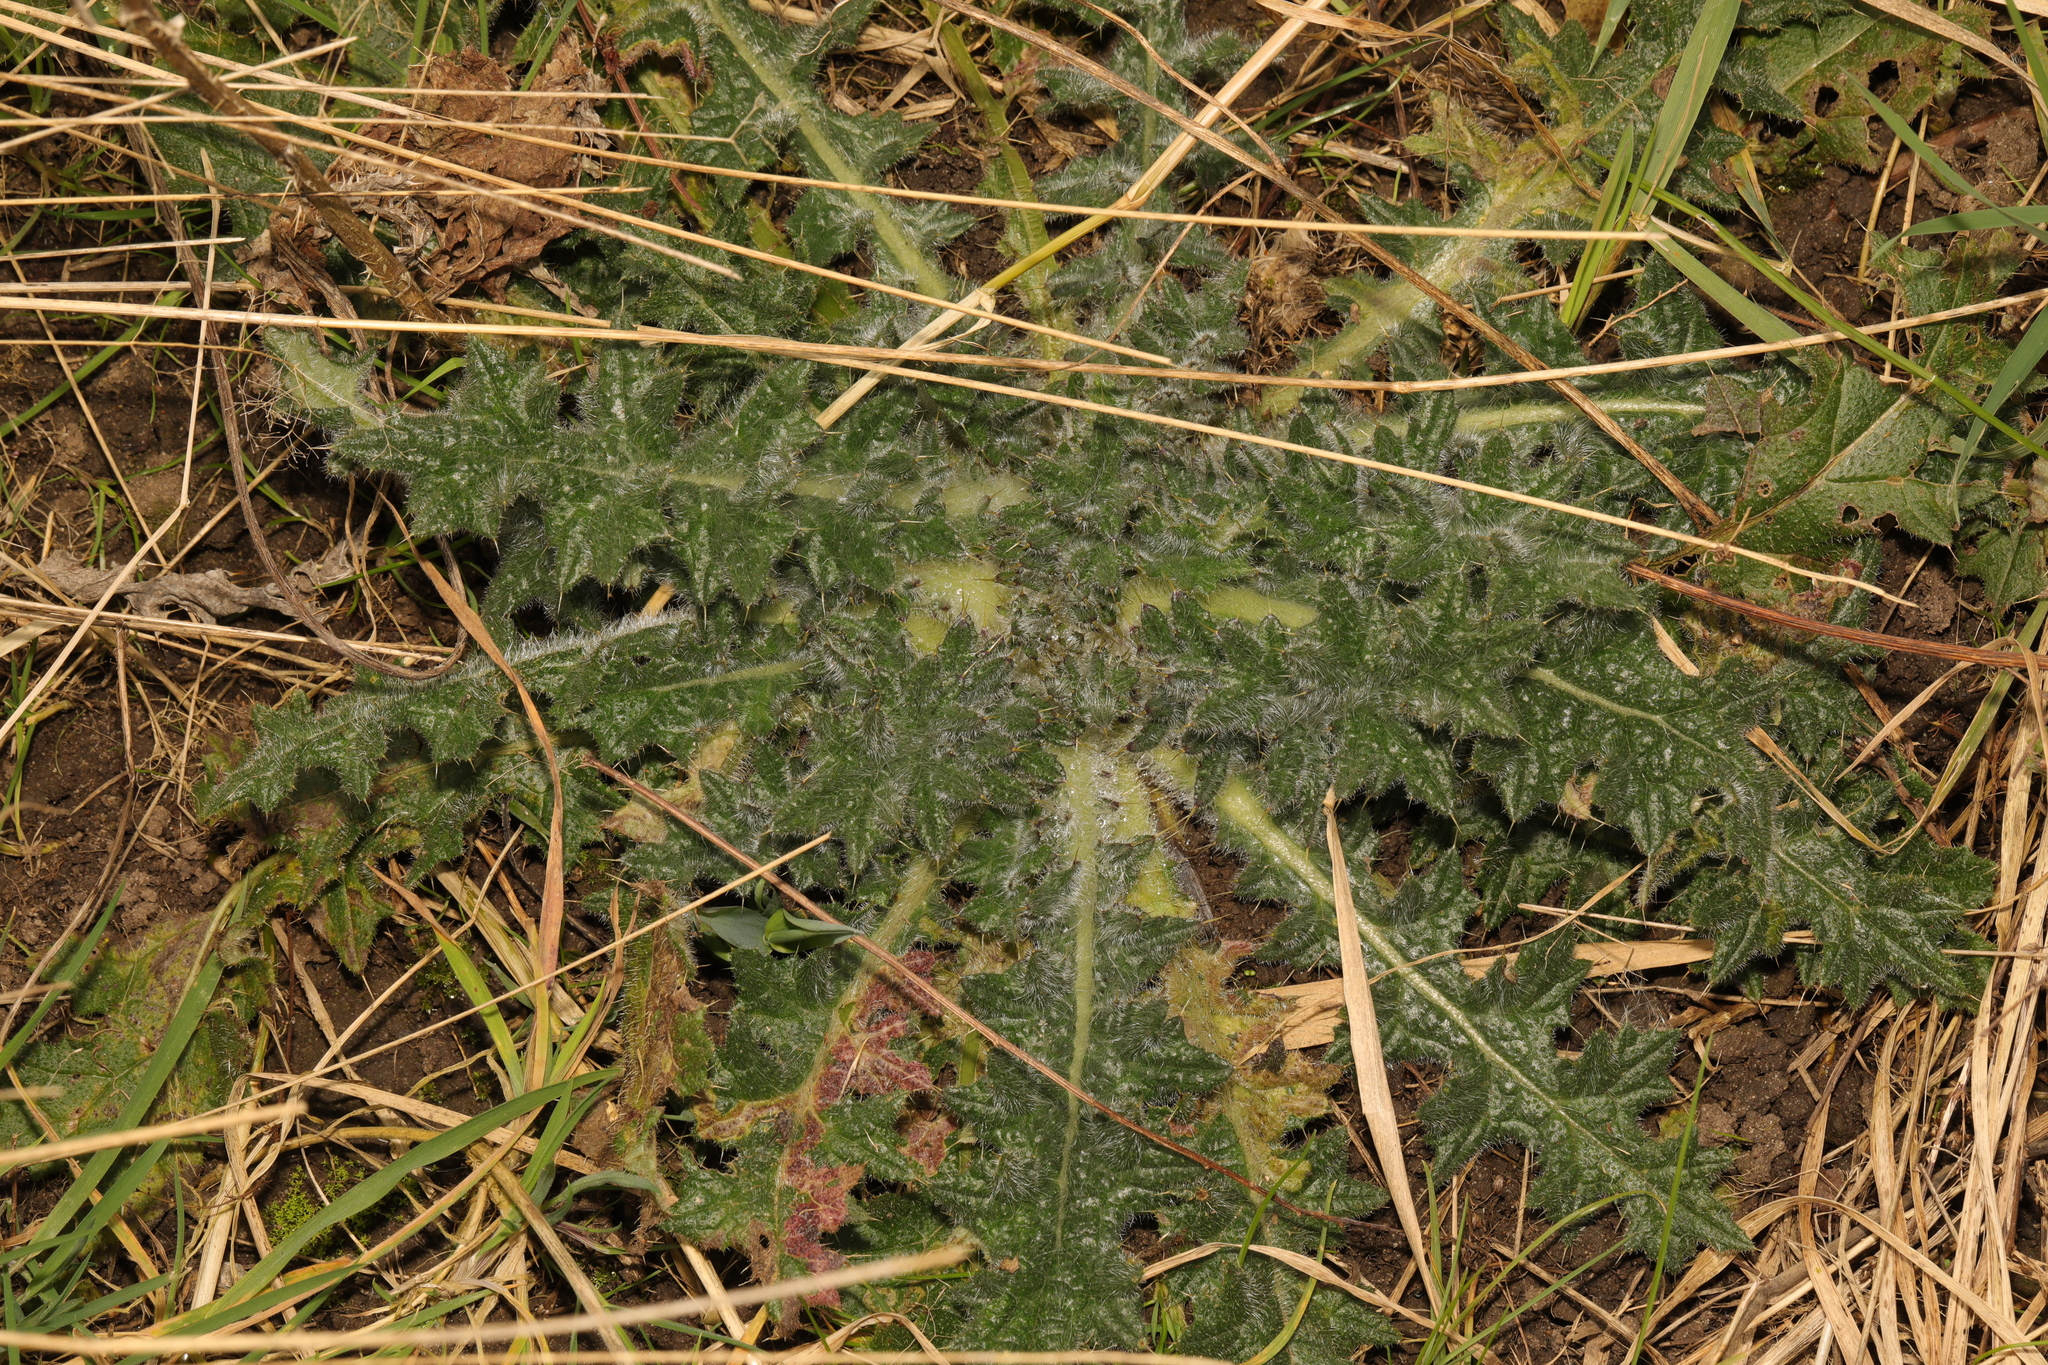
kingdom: Plantae
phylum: Tracheophyta
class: Magnoliopsida
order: Asterales
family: Asteraceae
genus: Cirsium
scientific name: Cirsium vulgare
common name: Bull thistle
